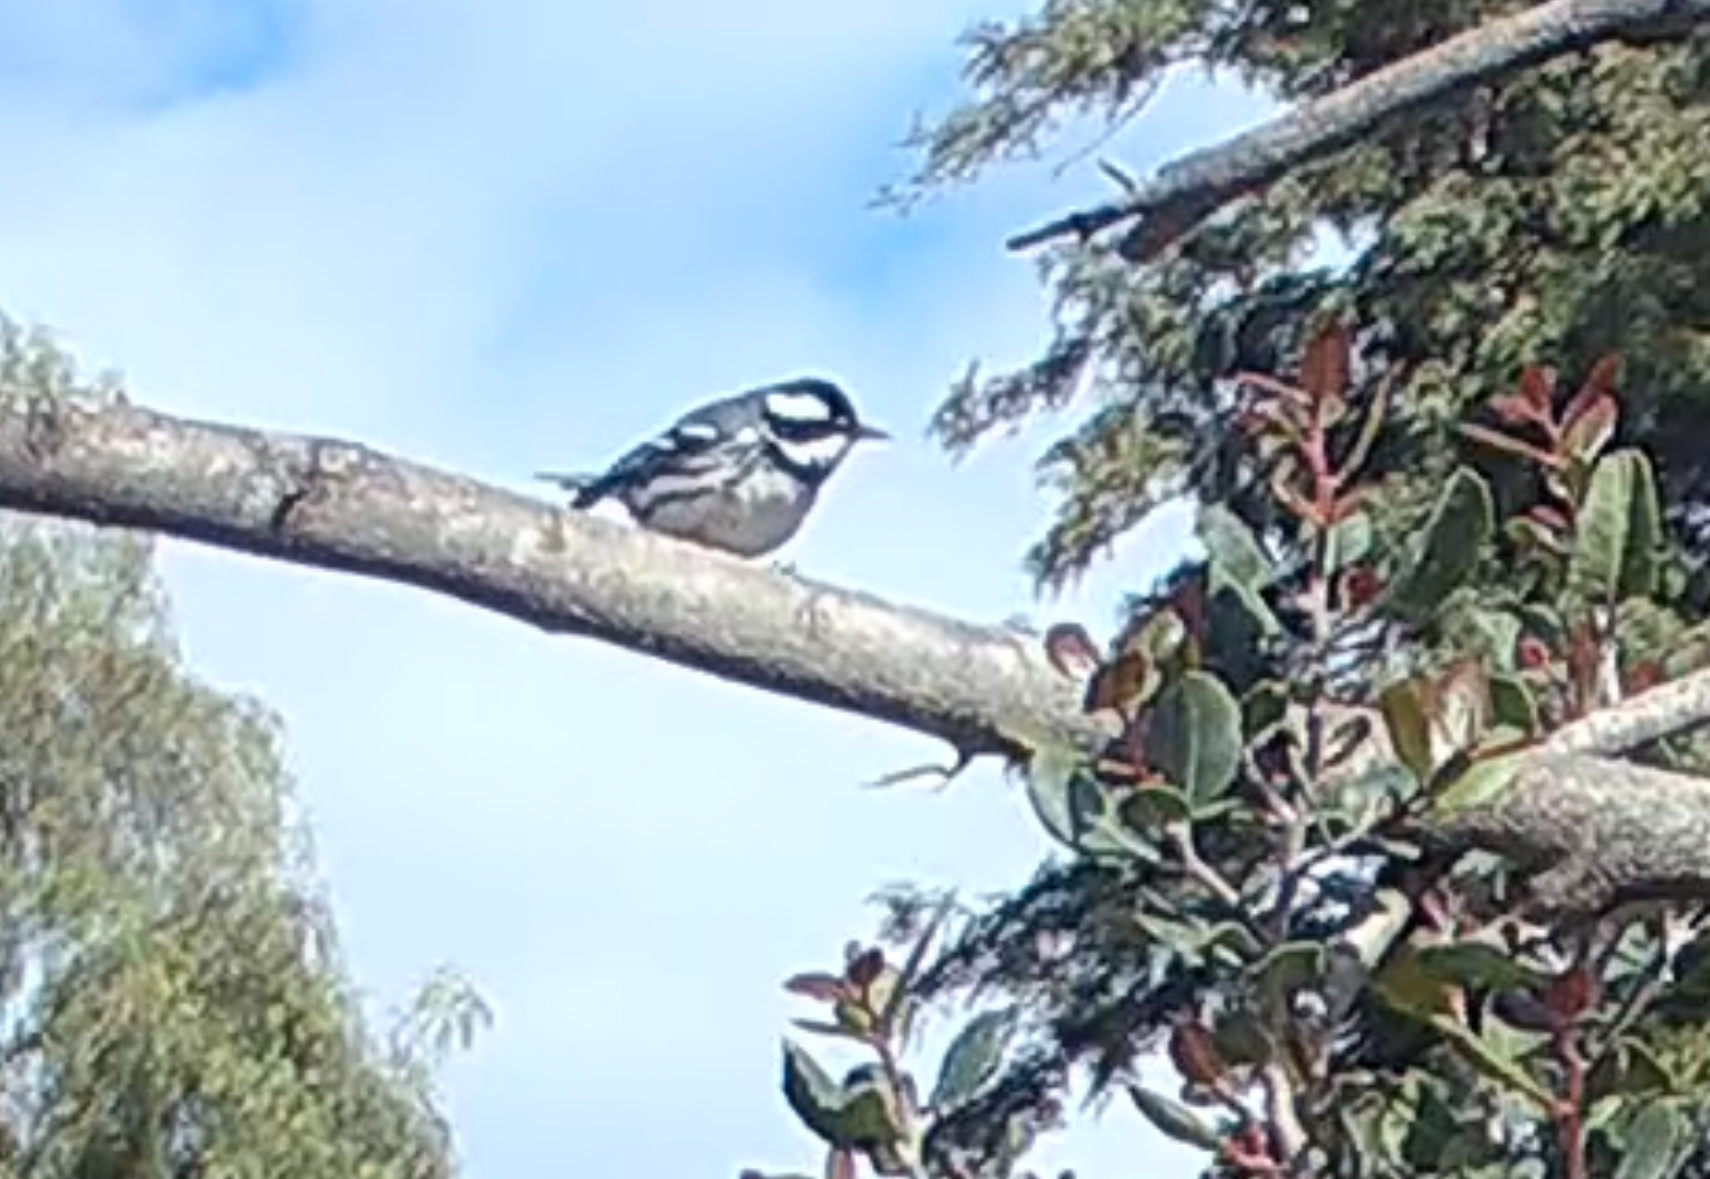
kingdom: Animalia
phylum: Chordata
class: Aves
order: Passeriformes
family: Parulidae
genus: Setophaga
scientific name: Setophaga nigrescens
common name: Black-throated gray warbler
